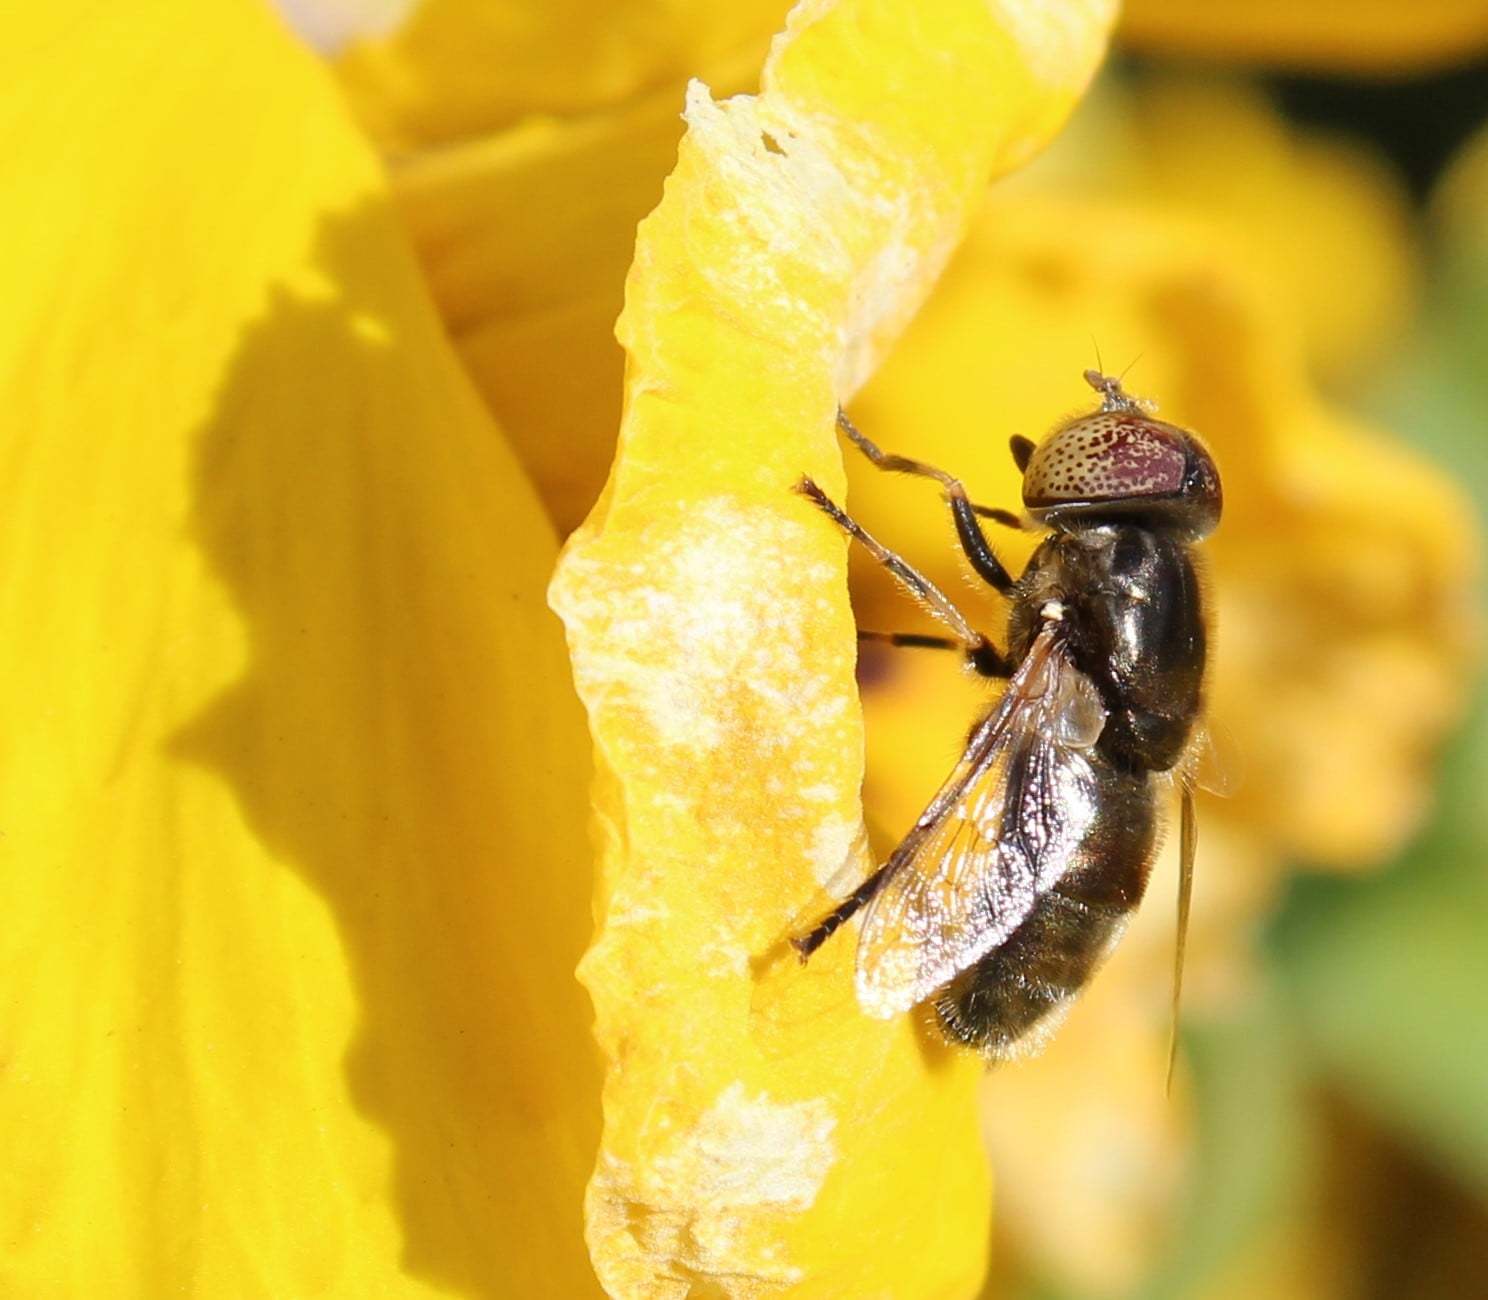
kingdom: Animalia
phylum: Arthropoda
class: Insecta
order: Diptera
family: Syrphidae
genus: Eristalinus
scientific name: Eristalinus aeneus
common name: Syrphid fly
